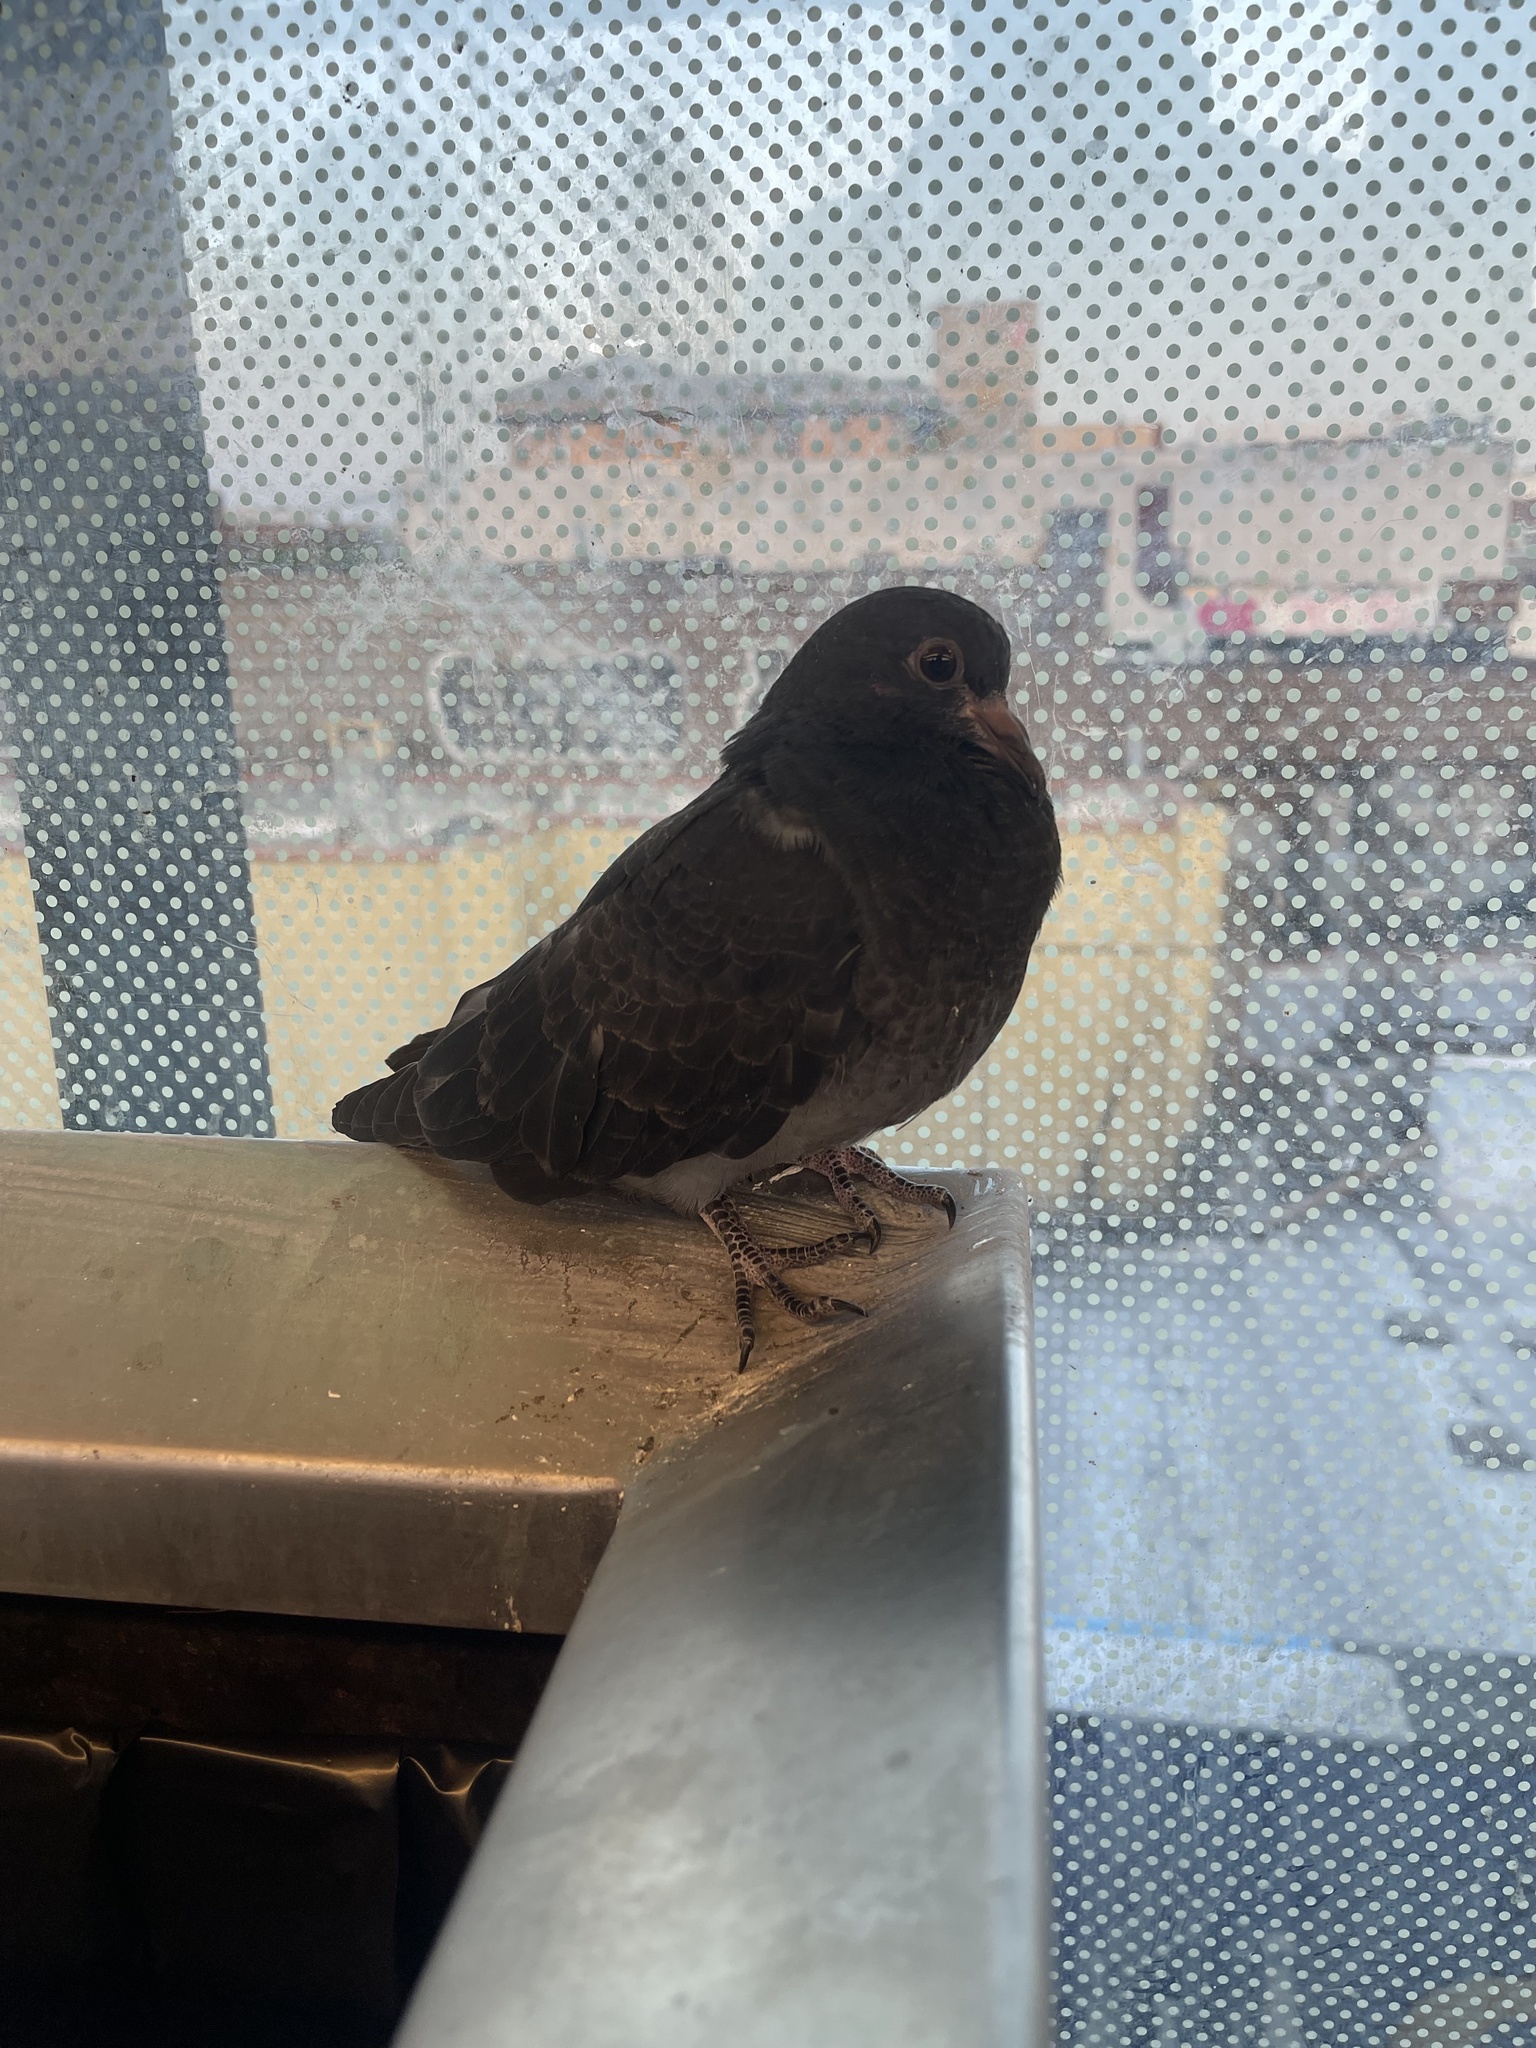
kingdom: Animalia
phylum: Chordata
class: Aves
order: Columbiformes
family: Columbidae
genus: Columba
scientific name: Columba livia
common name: Rock pigeon
